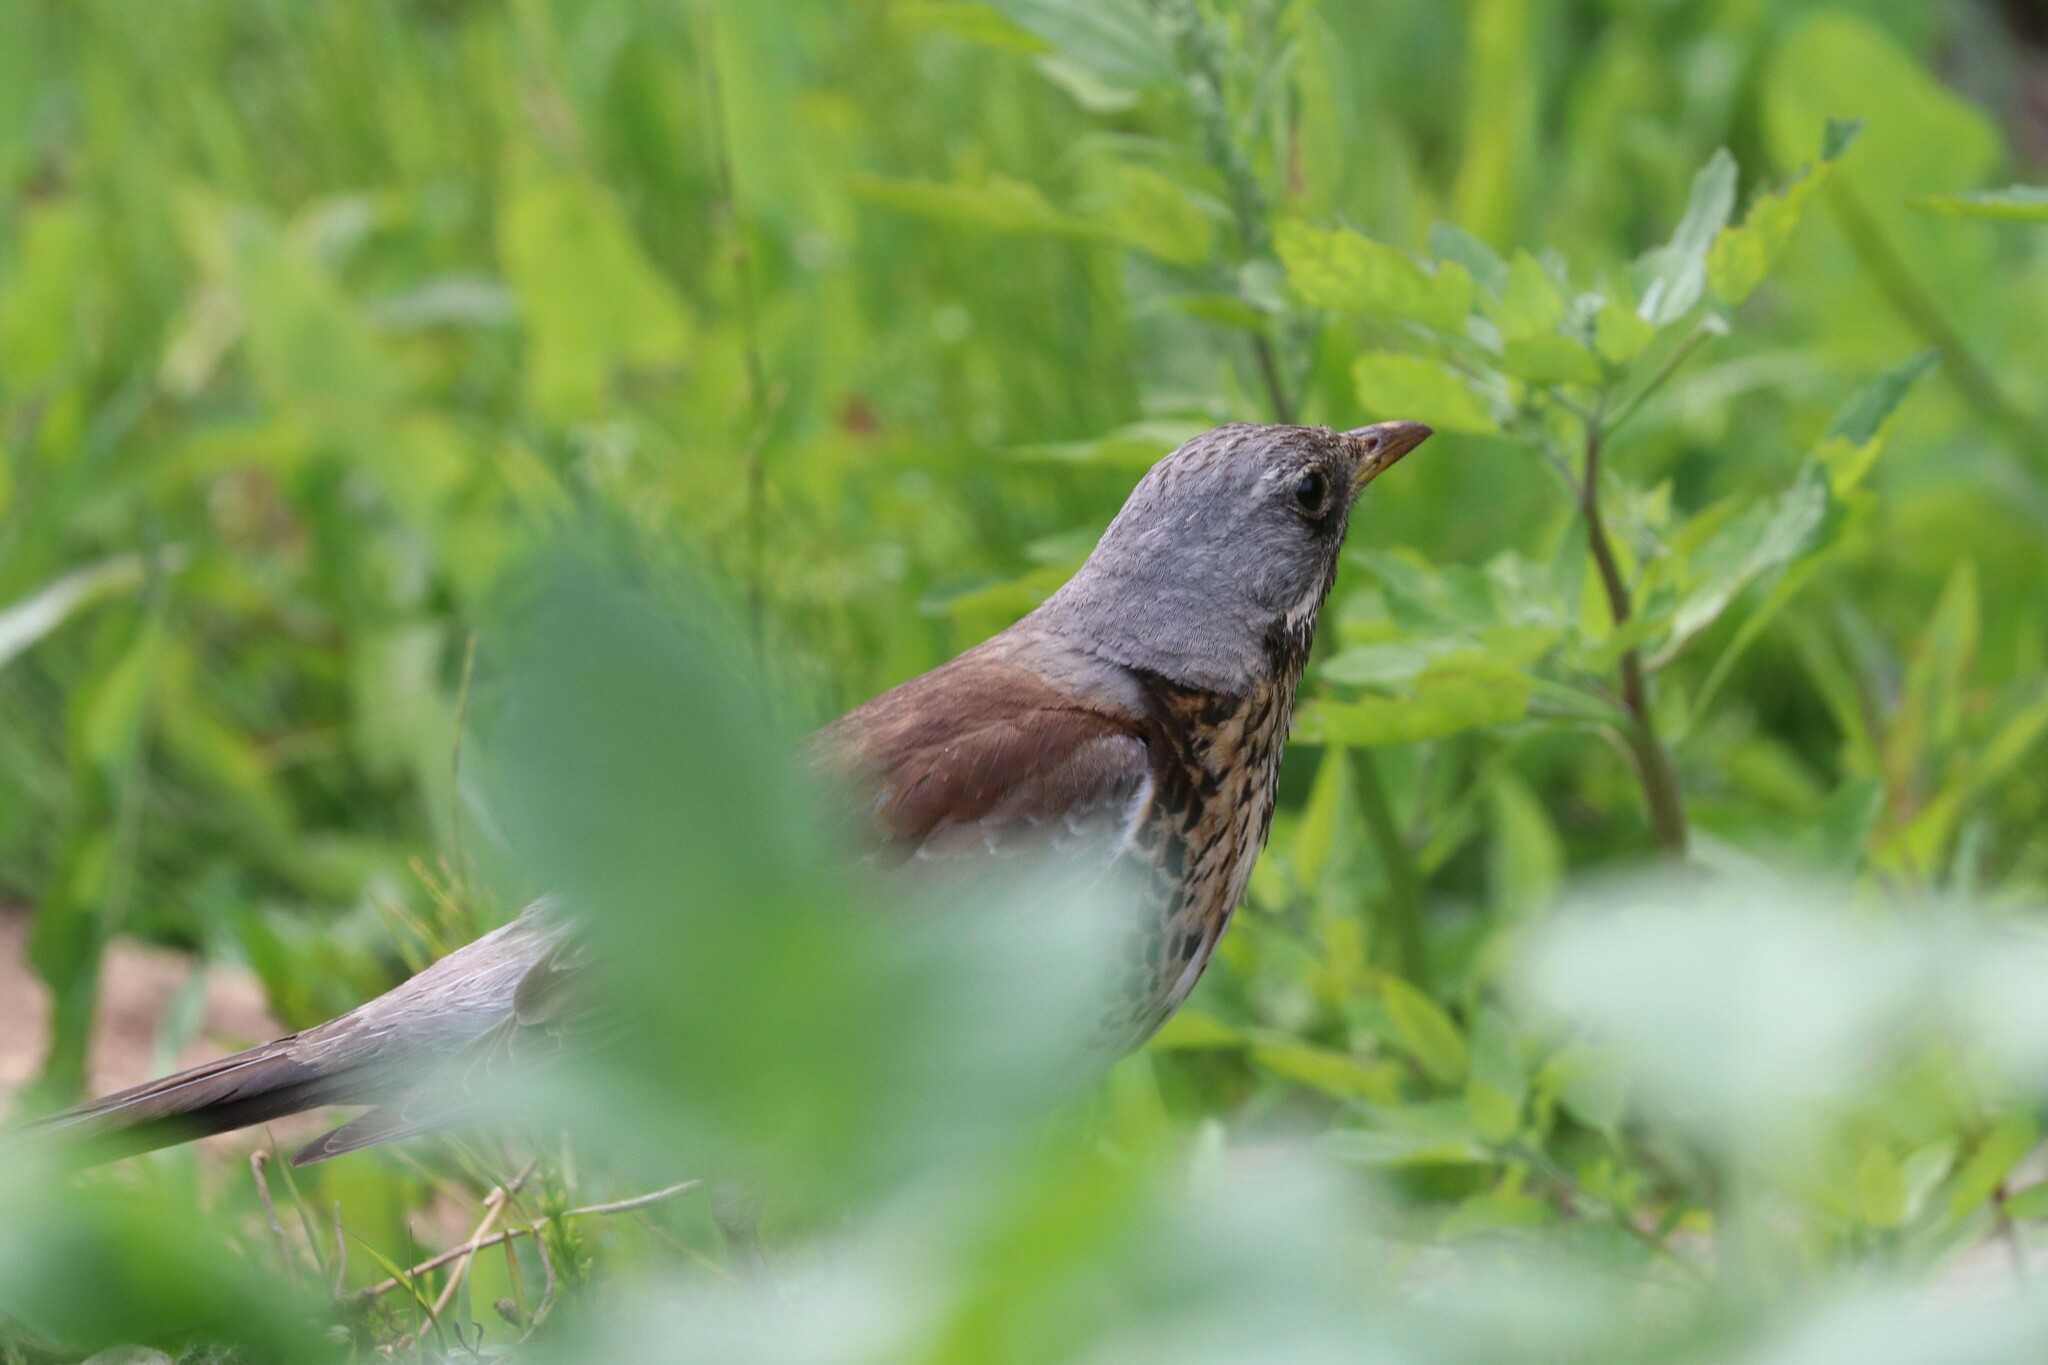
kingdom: Animalia
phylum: Chordata
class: Aves
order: Passeriformes
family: Turdidae
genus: Turdus
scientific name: Turdus pilaris
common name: Fieldfare
